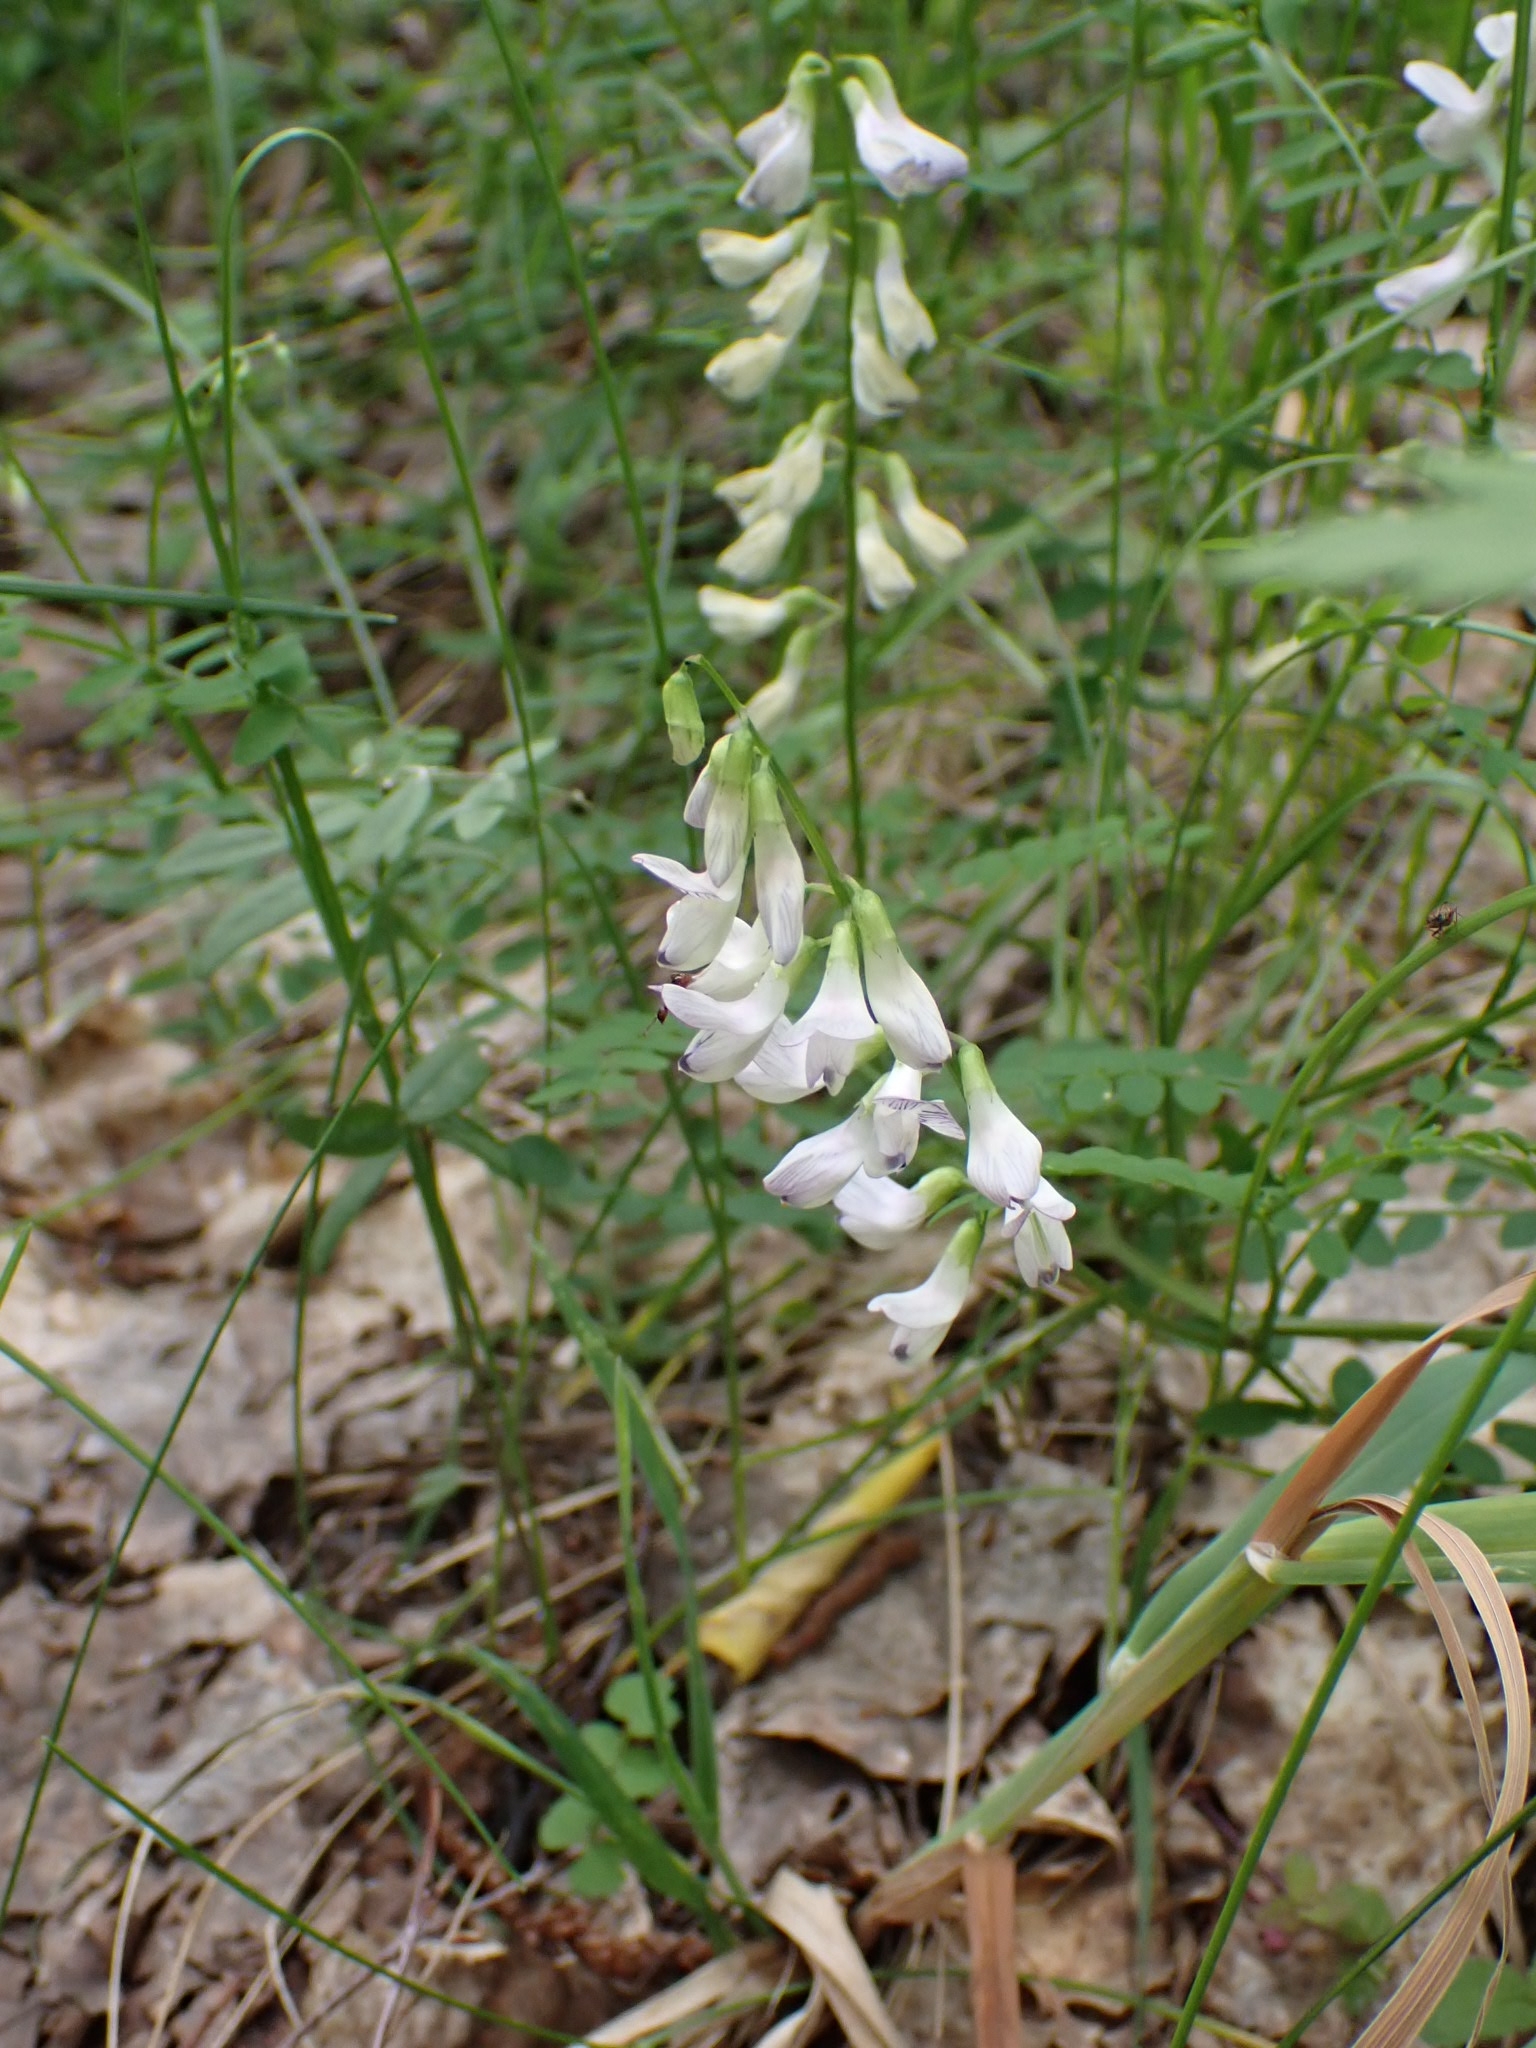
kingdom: Plantae
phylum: Tracheophyta
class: Magnoliopsida
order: Fabales
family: Fabaceae
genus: Vicia
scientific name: Vicia sylvatica
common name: Wood vetch
